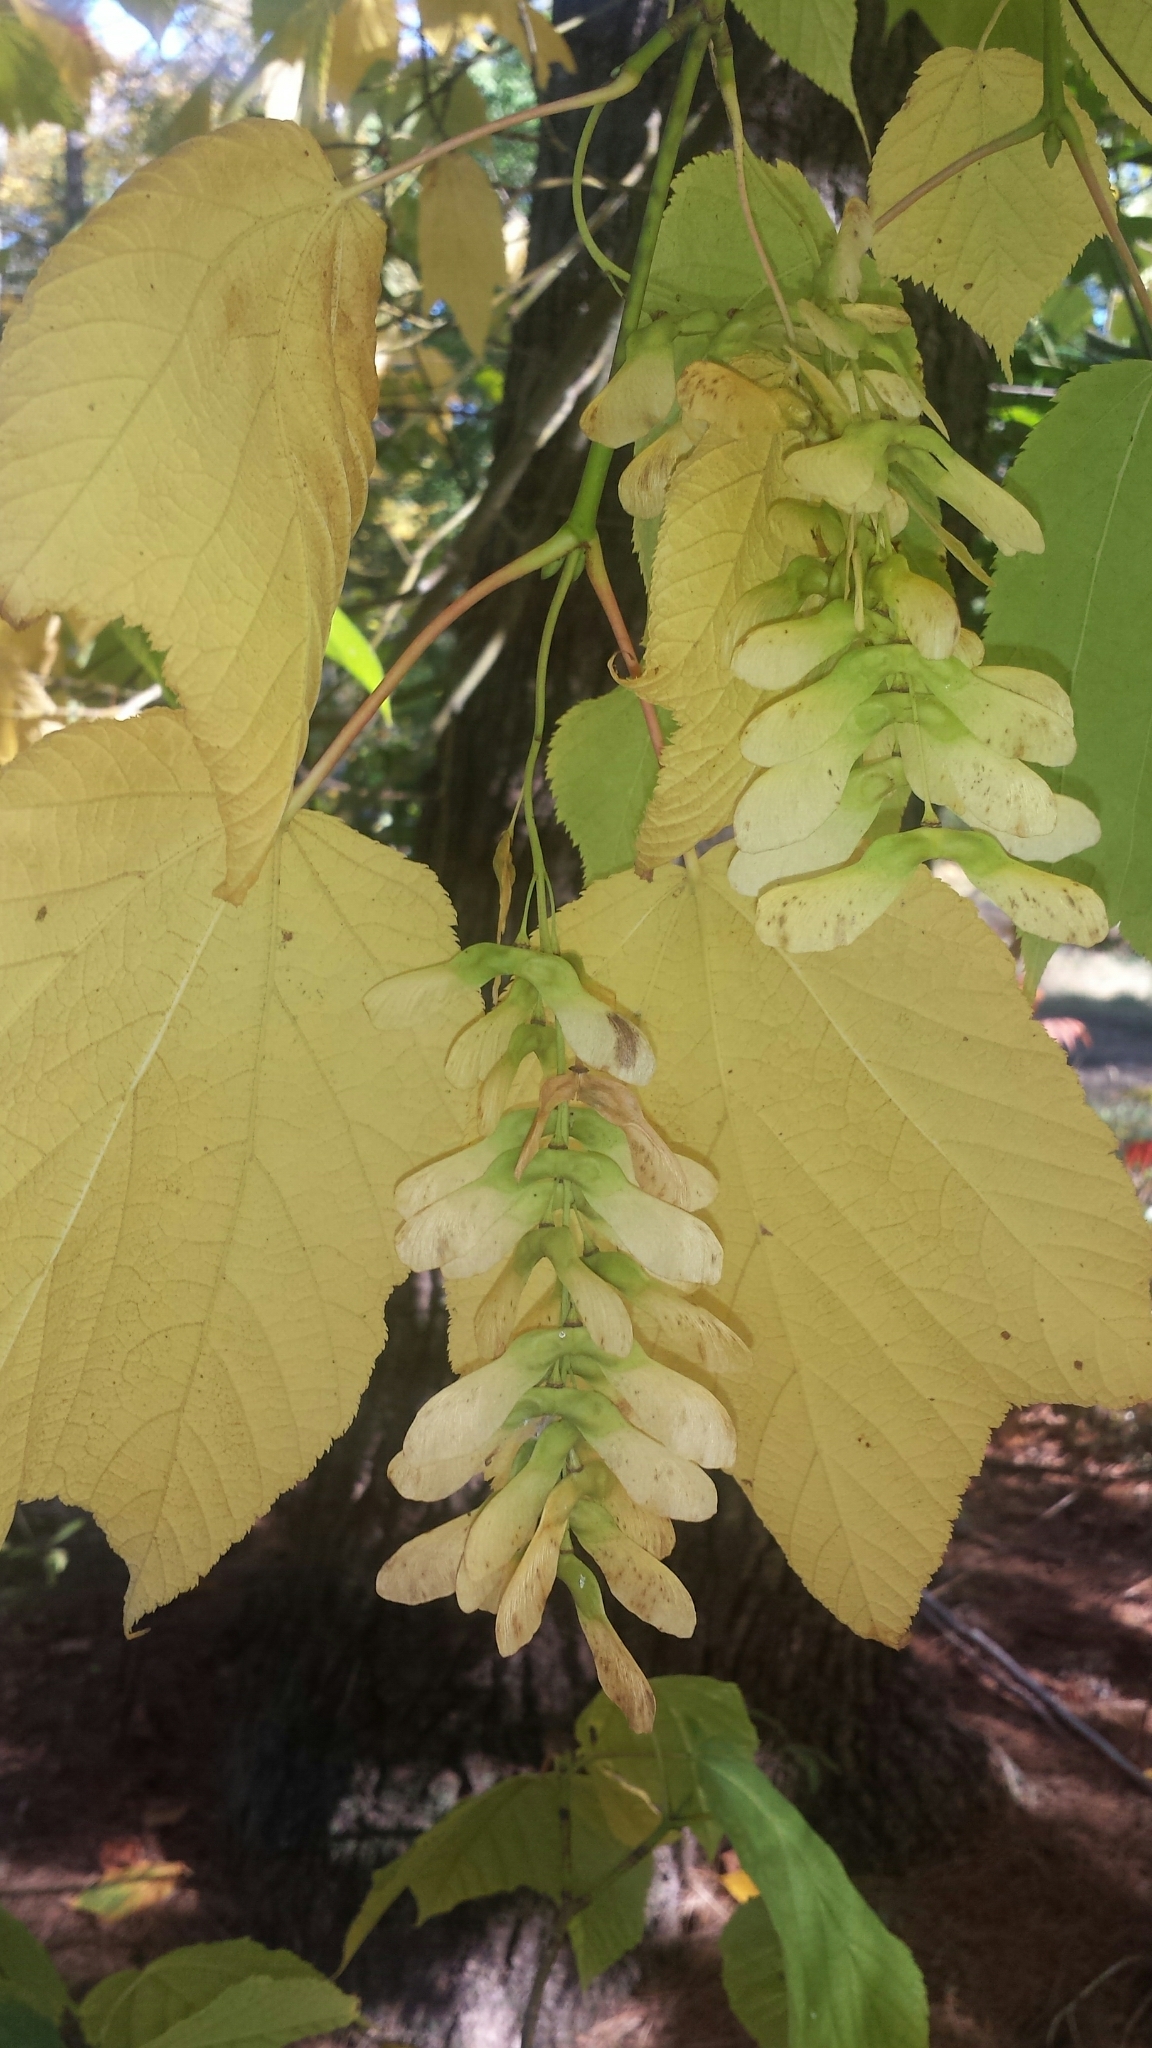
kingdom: Plantae
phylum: Tracheophyta
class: Magnoliopsida
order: Sapindales
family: Sapindaceae
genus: Acer
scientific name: Acer pensylvanicum
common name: Moosewood
